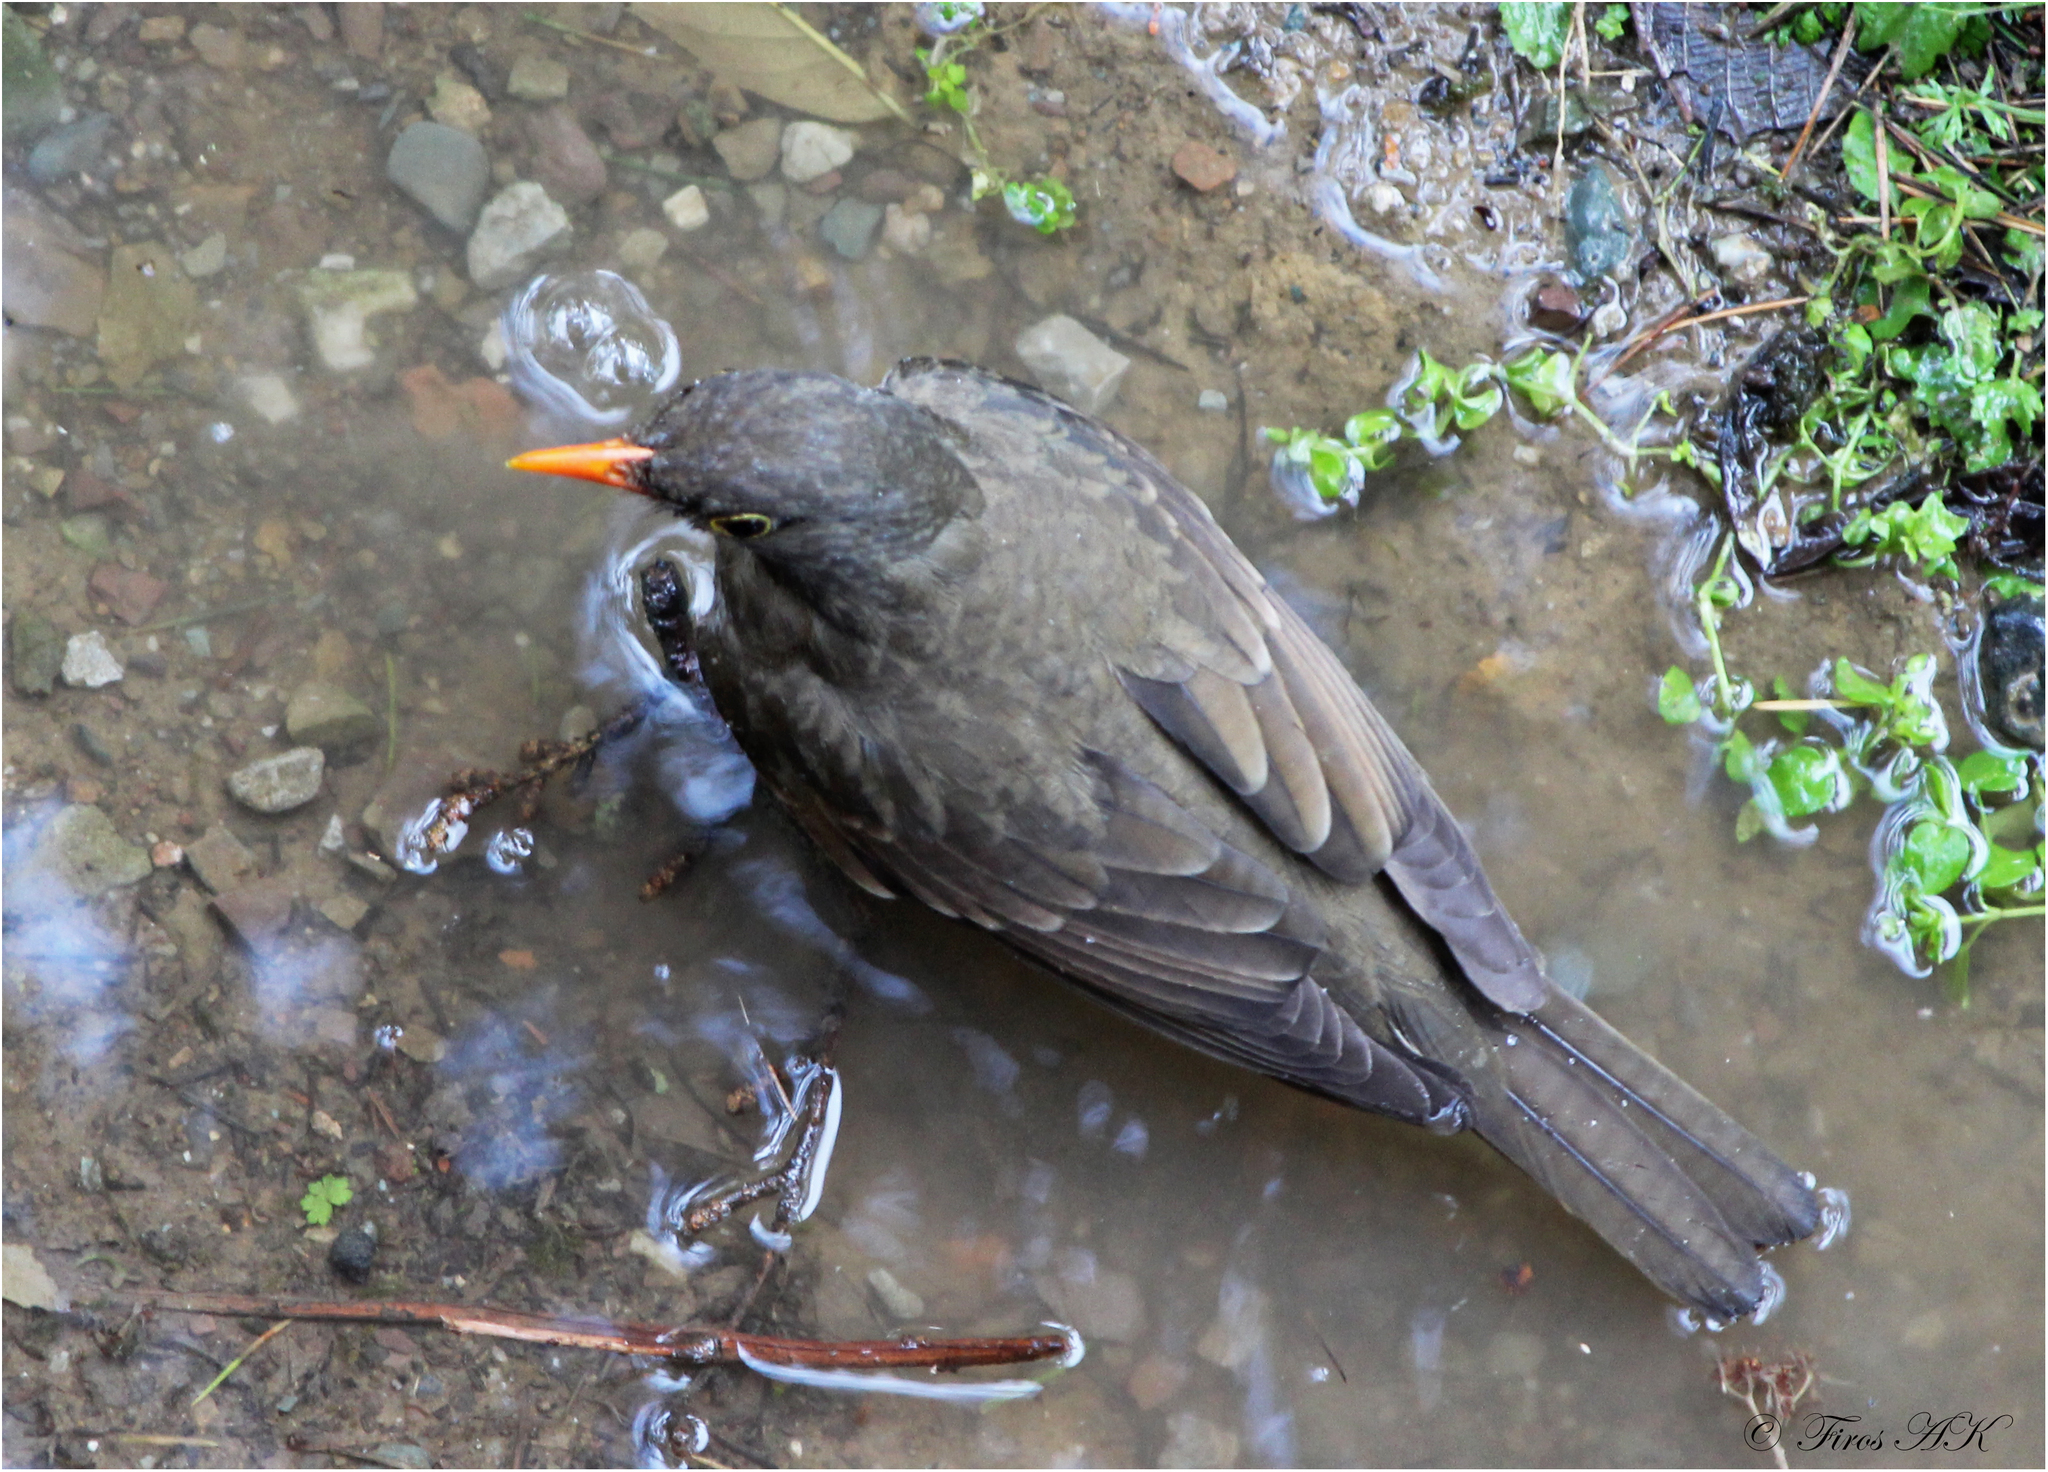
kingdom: Animalia
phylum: Chordata
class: Aves
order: Passeriformes
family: Turdidae
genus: Turdus
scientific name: Turdus boulboul
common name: Grey-winged blackbird
